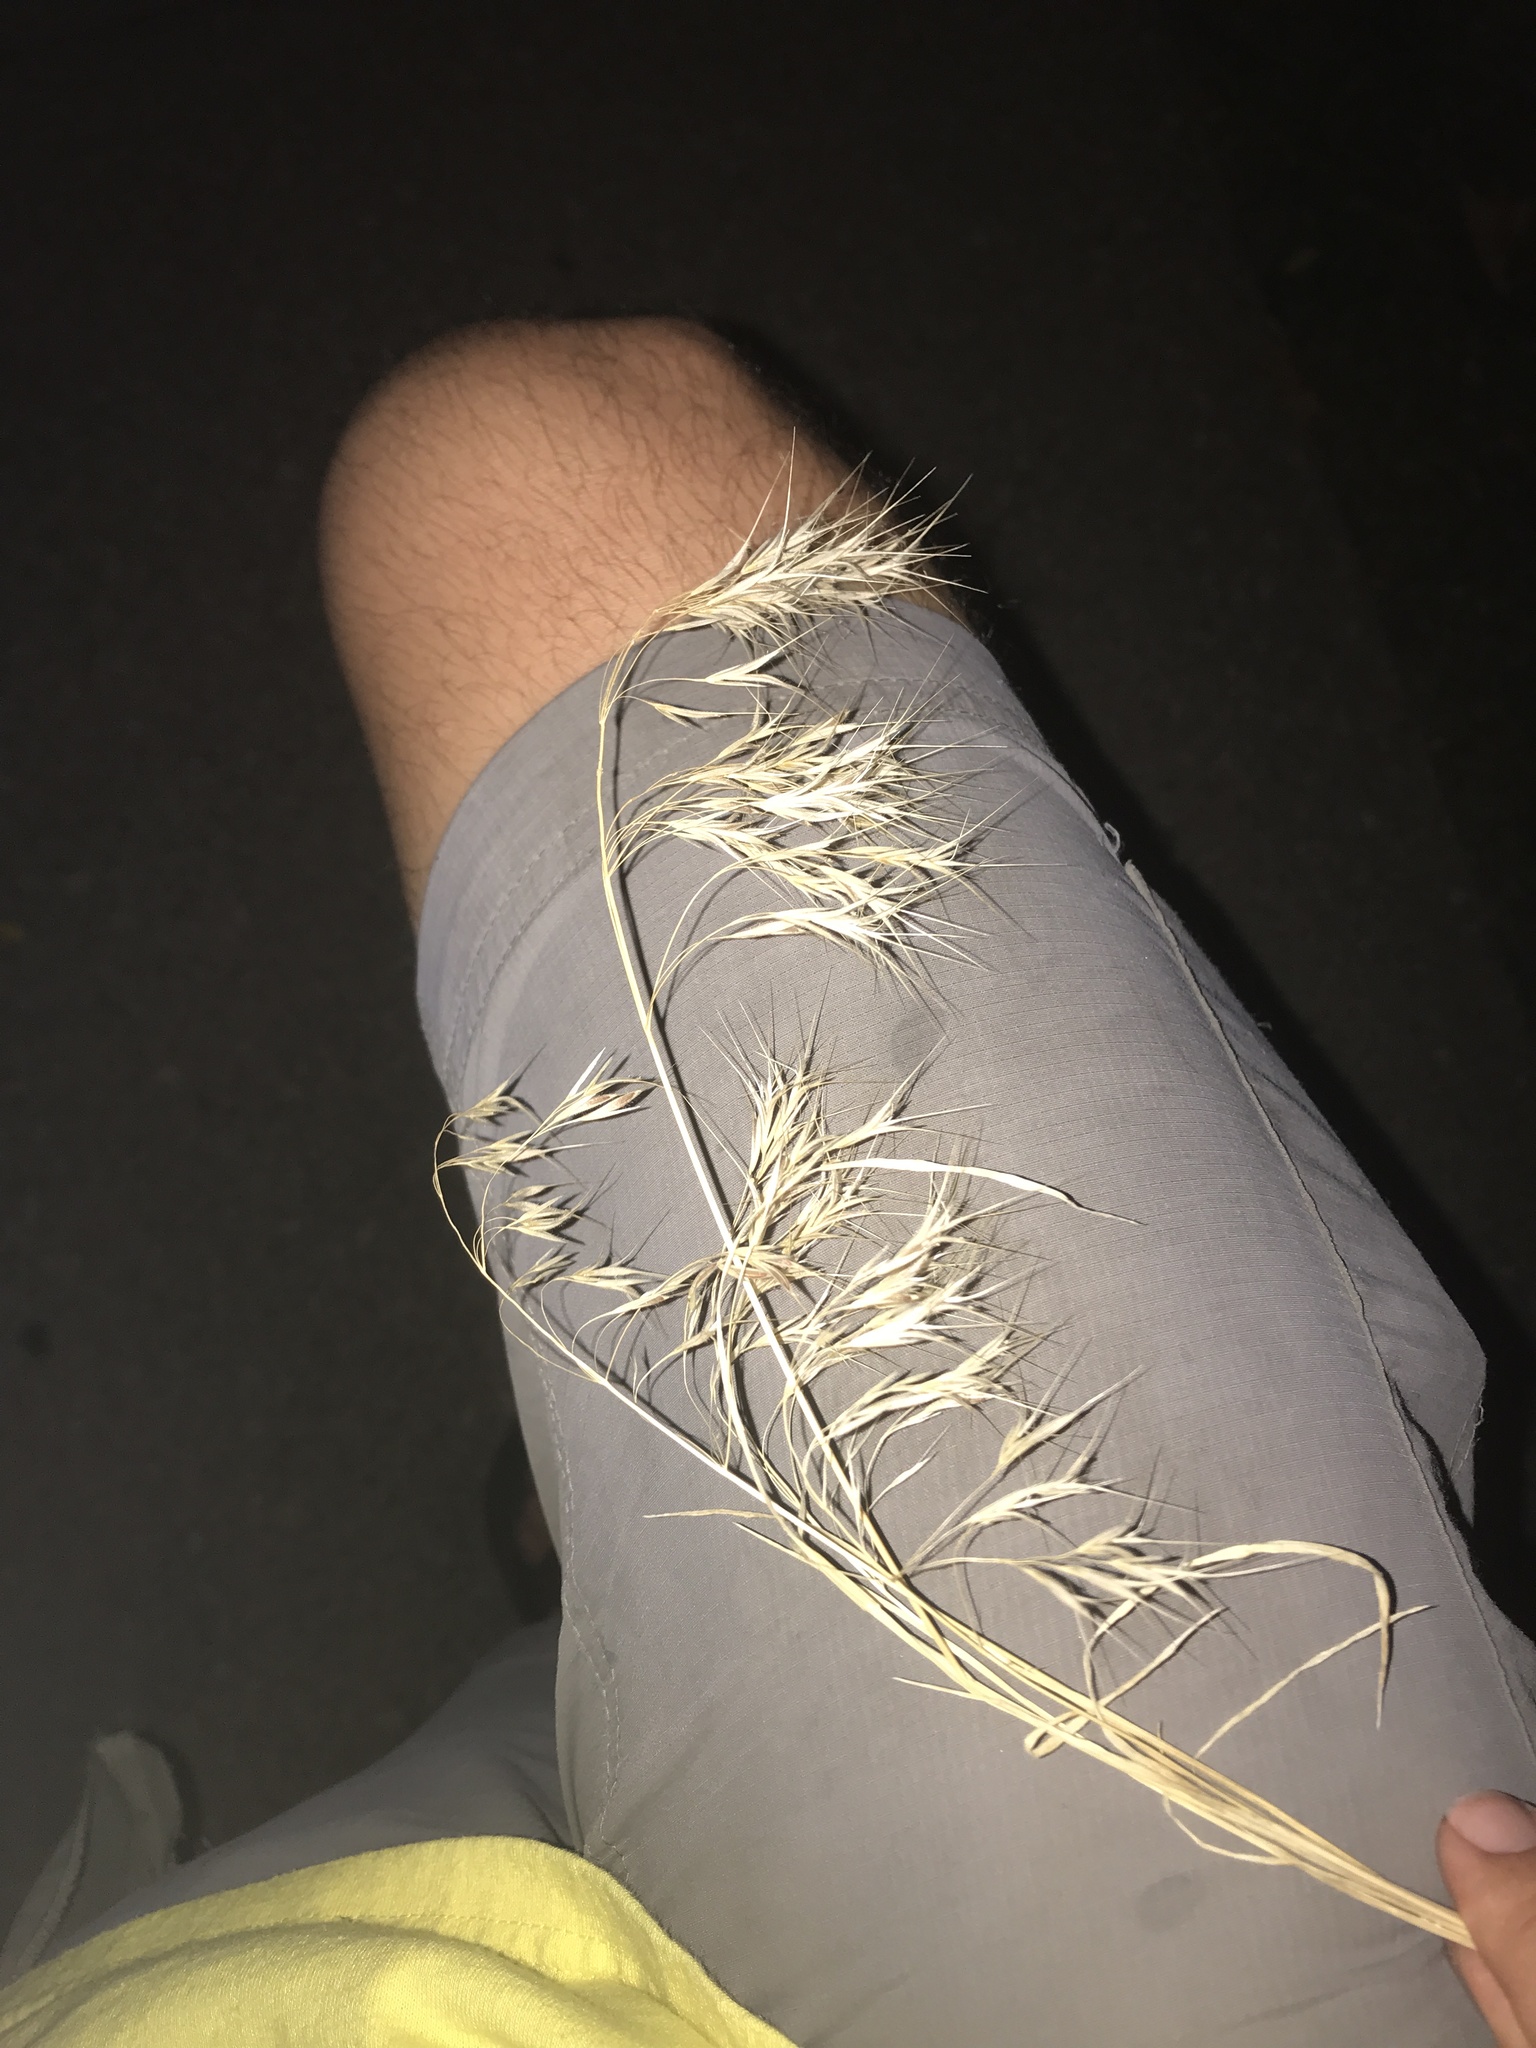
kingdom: Plantae
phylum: Tracheophyta
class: Liliopsida
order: Poales
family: Poaceae
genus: Bromus
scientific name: Bromus tectorum
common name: Cheatgrass
